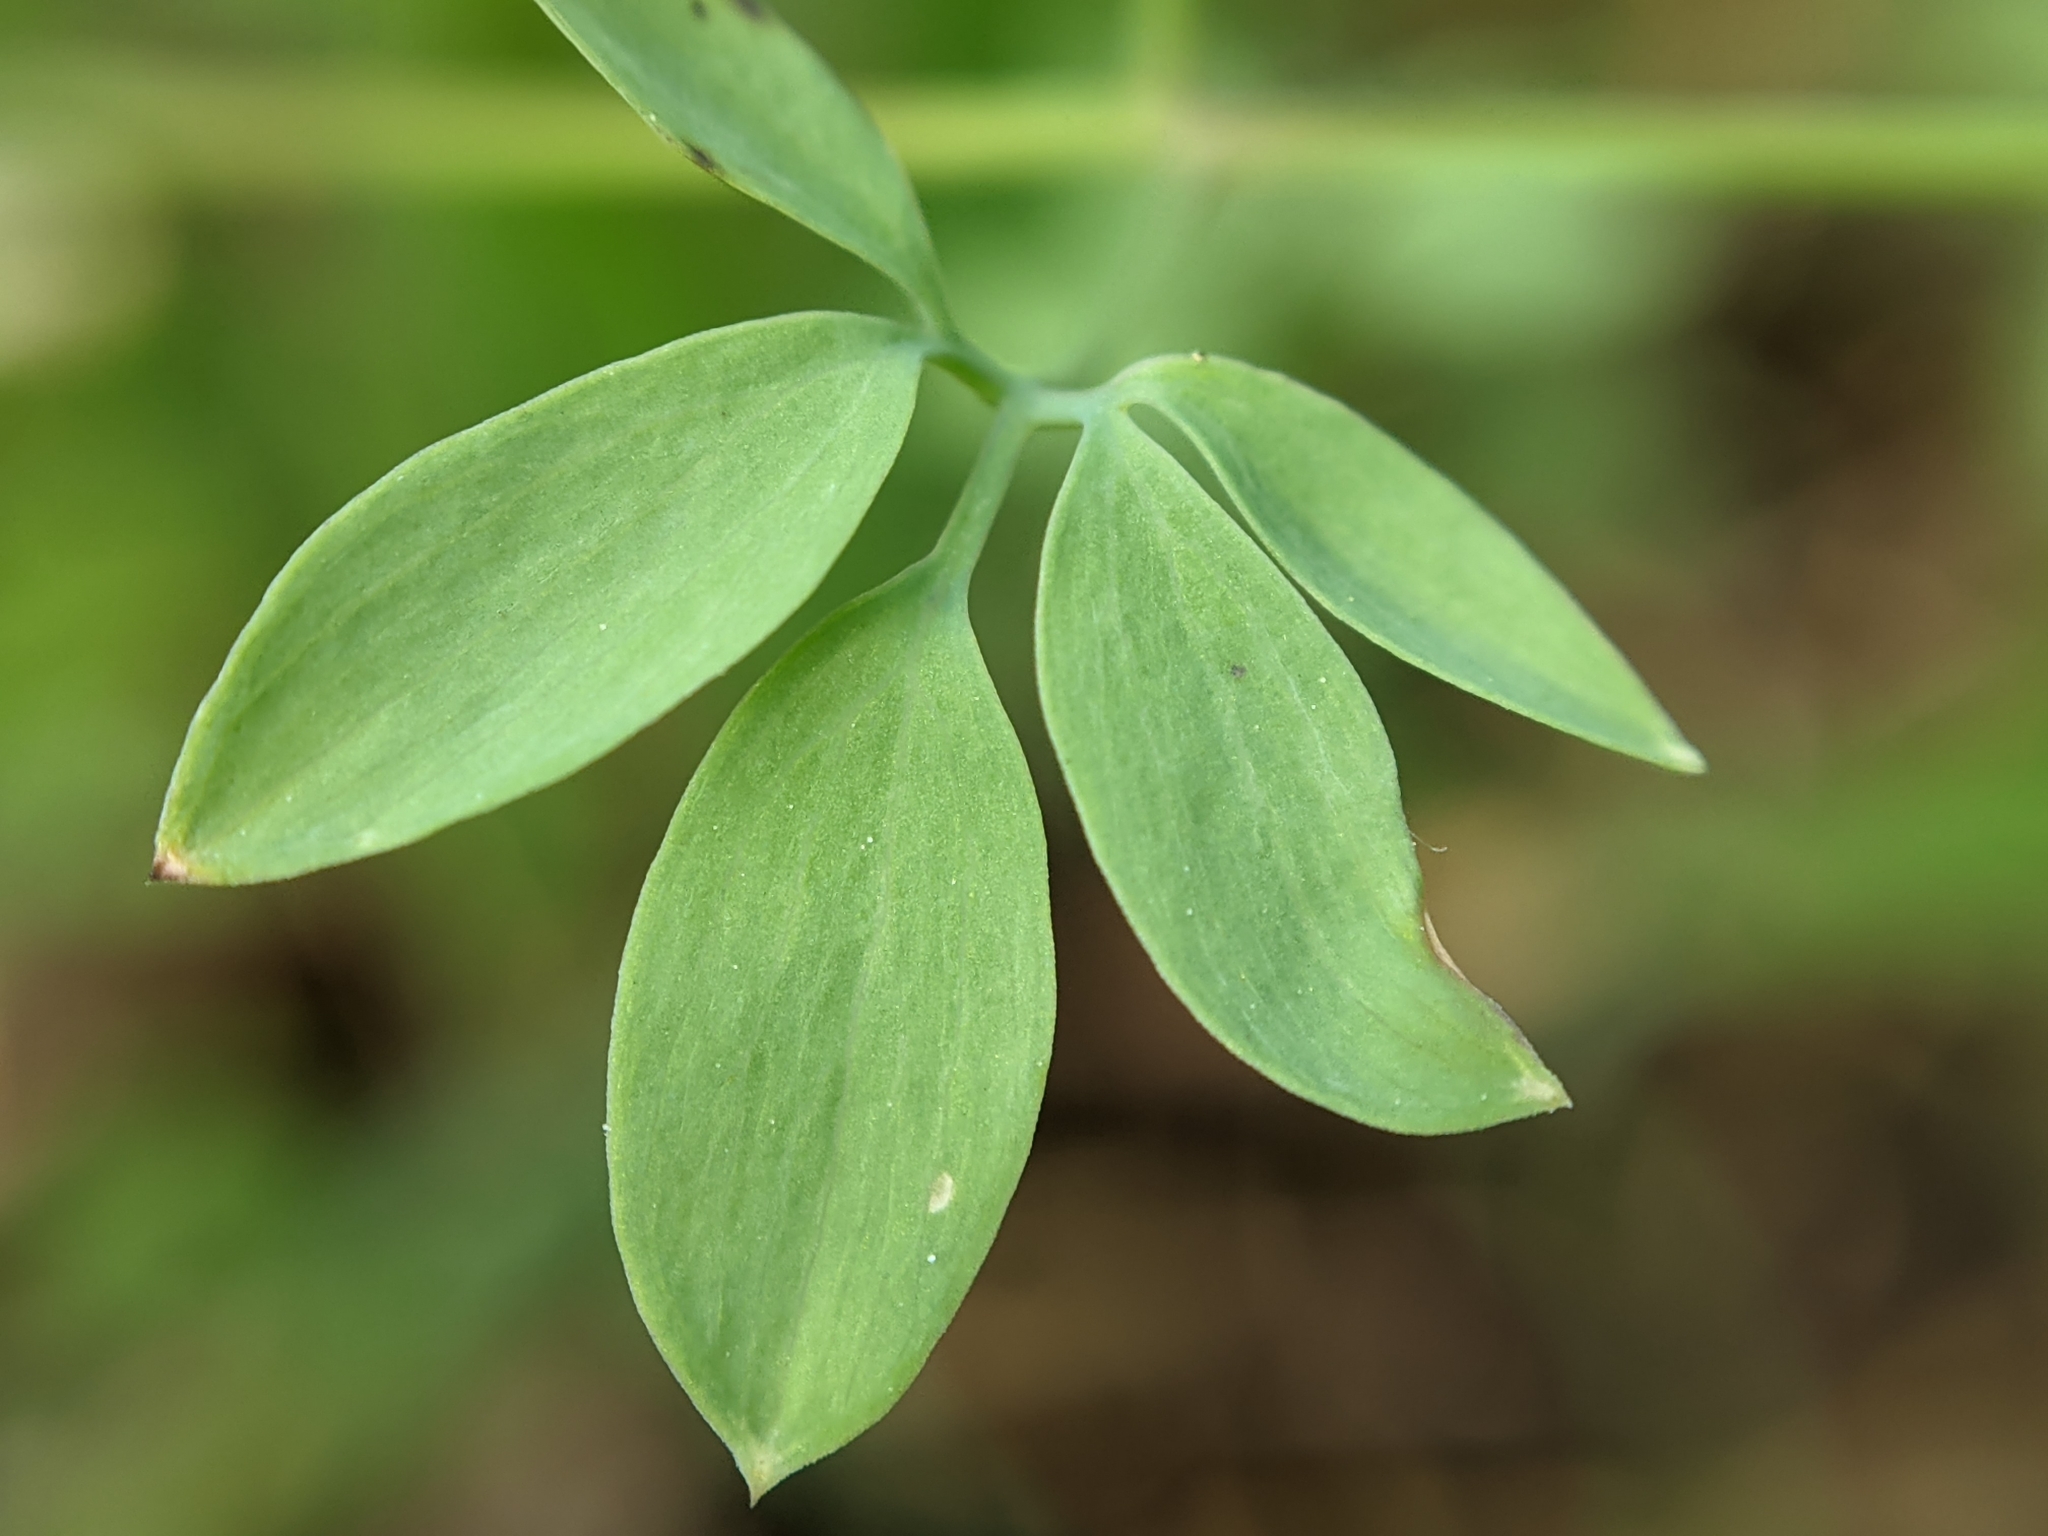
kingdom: Plantae
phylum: Tracheophyta
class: Magnoliopsida
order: Ranunculales
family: Papaveraceae
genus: Ceratocapnos
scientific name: Ceratocapnos claviculata
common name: Climbing corydalis
